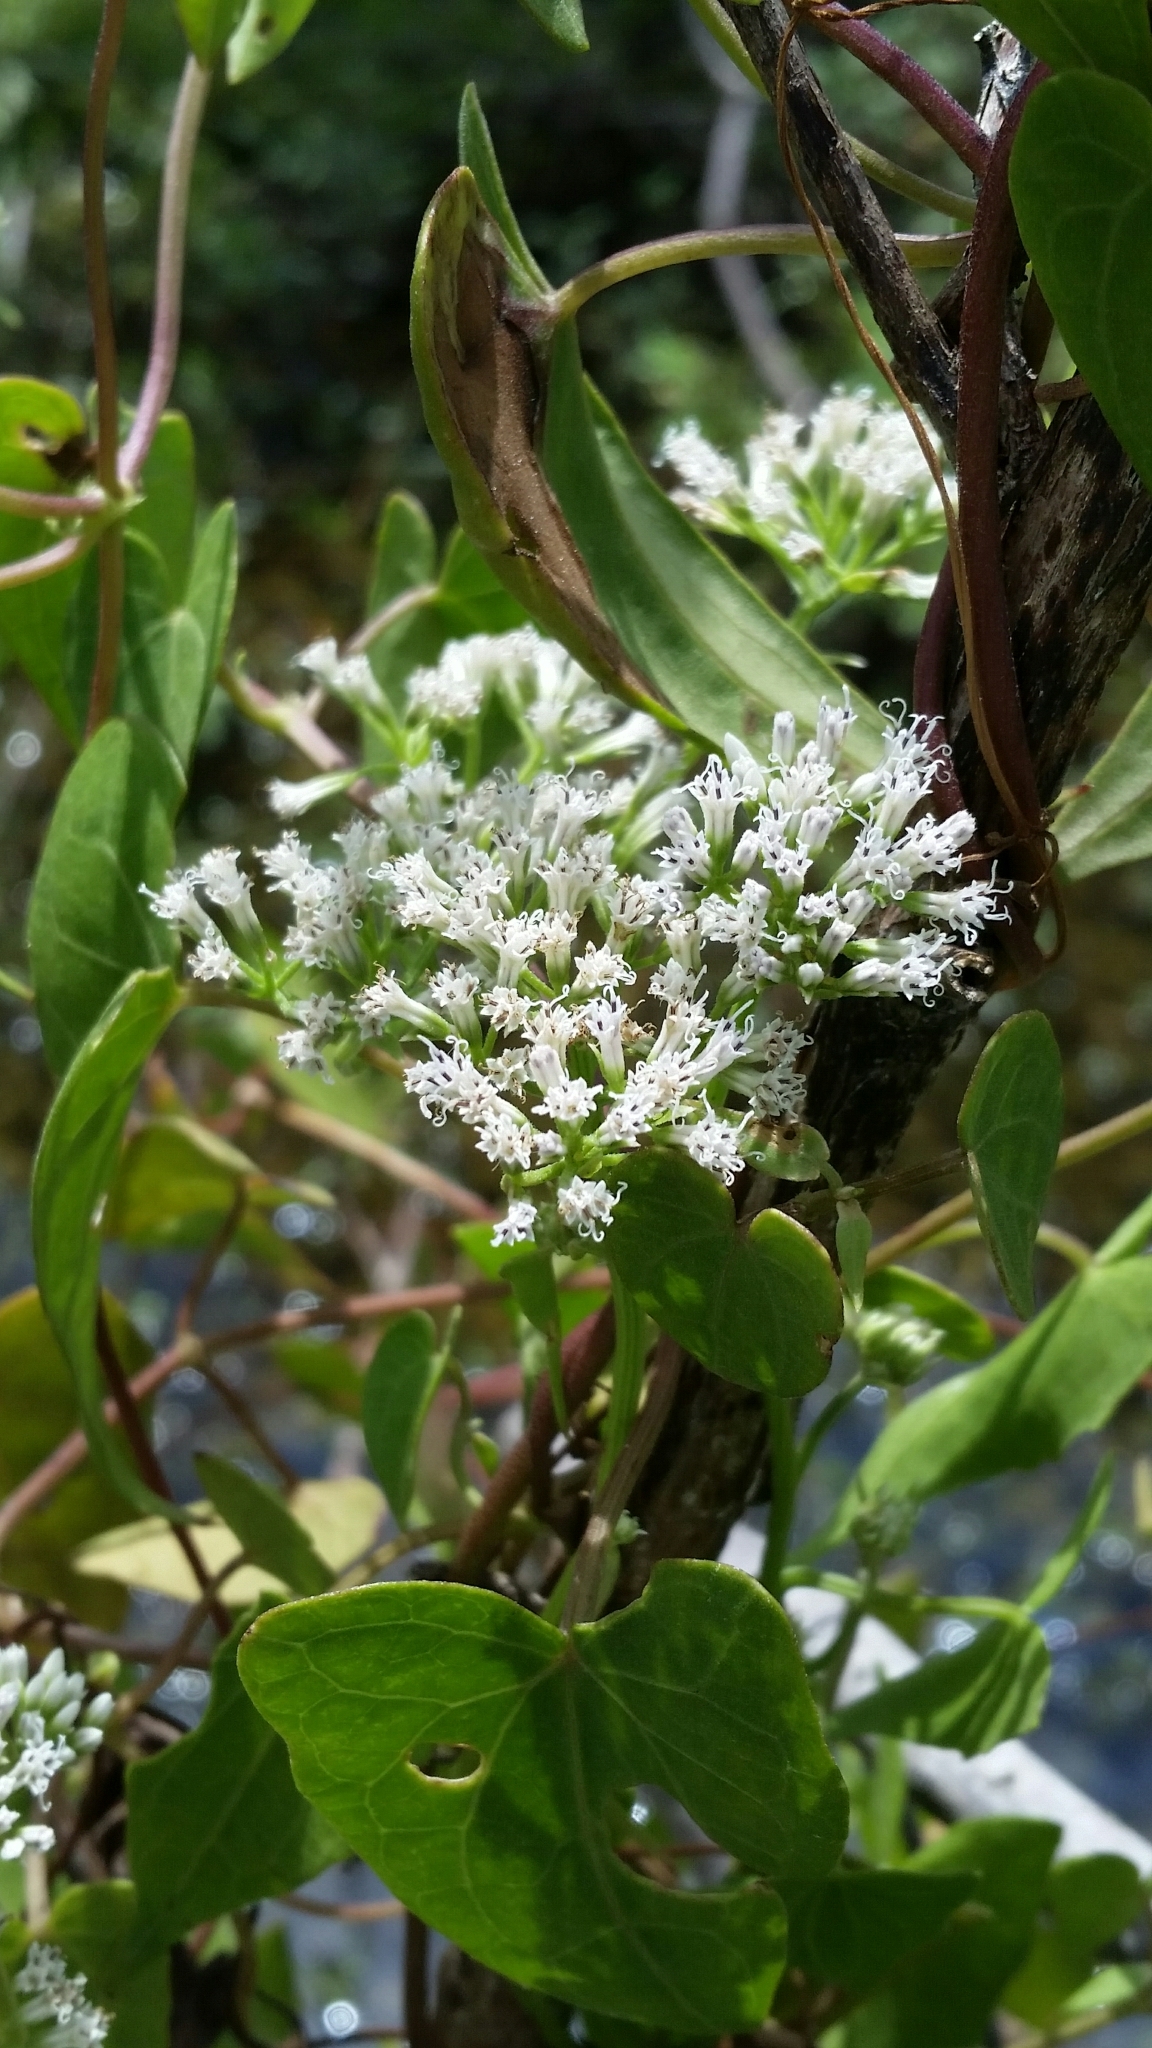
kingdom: Plantae
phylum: Tracheophyta
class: Magnoliopsida
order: Asterales
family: Asteraceae
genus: Mikania
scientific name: Mikania scandens
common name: Climbing hempvine
